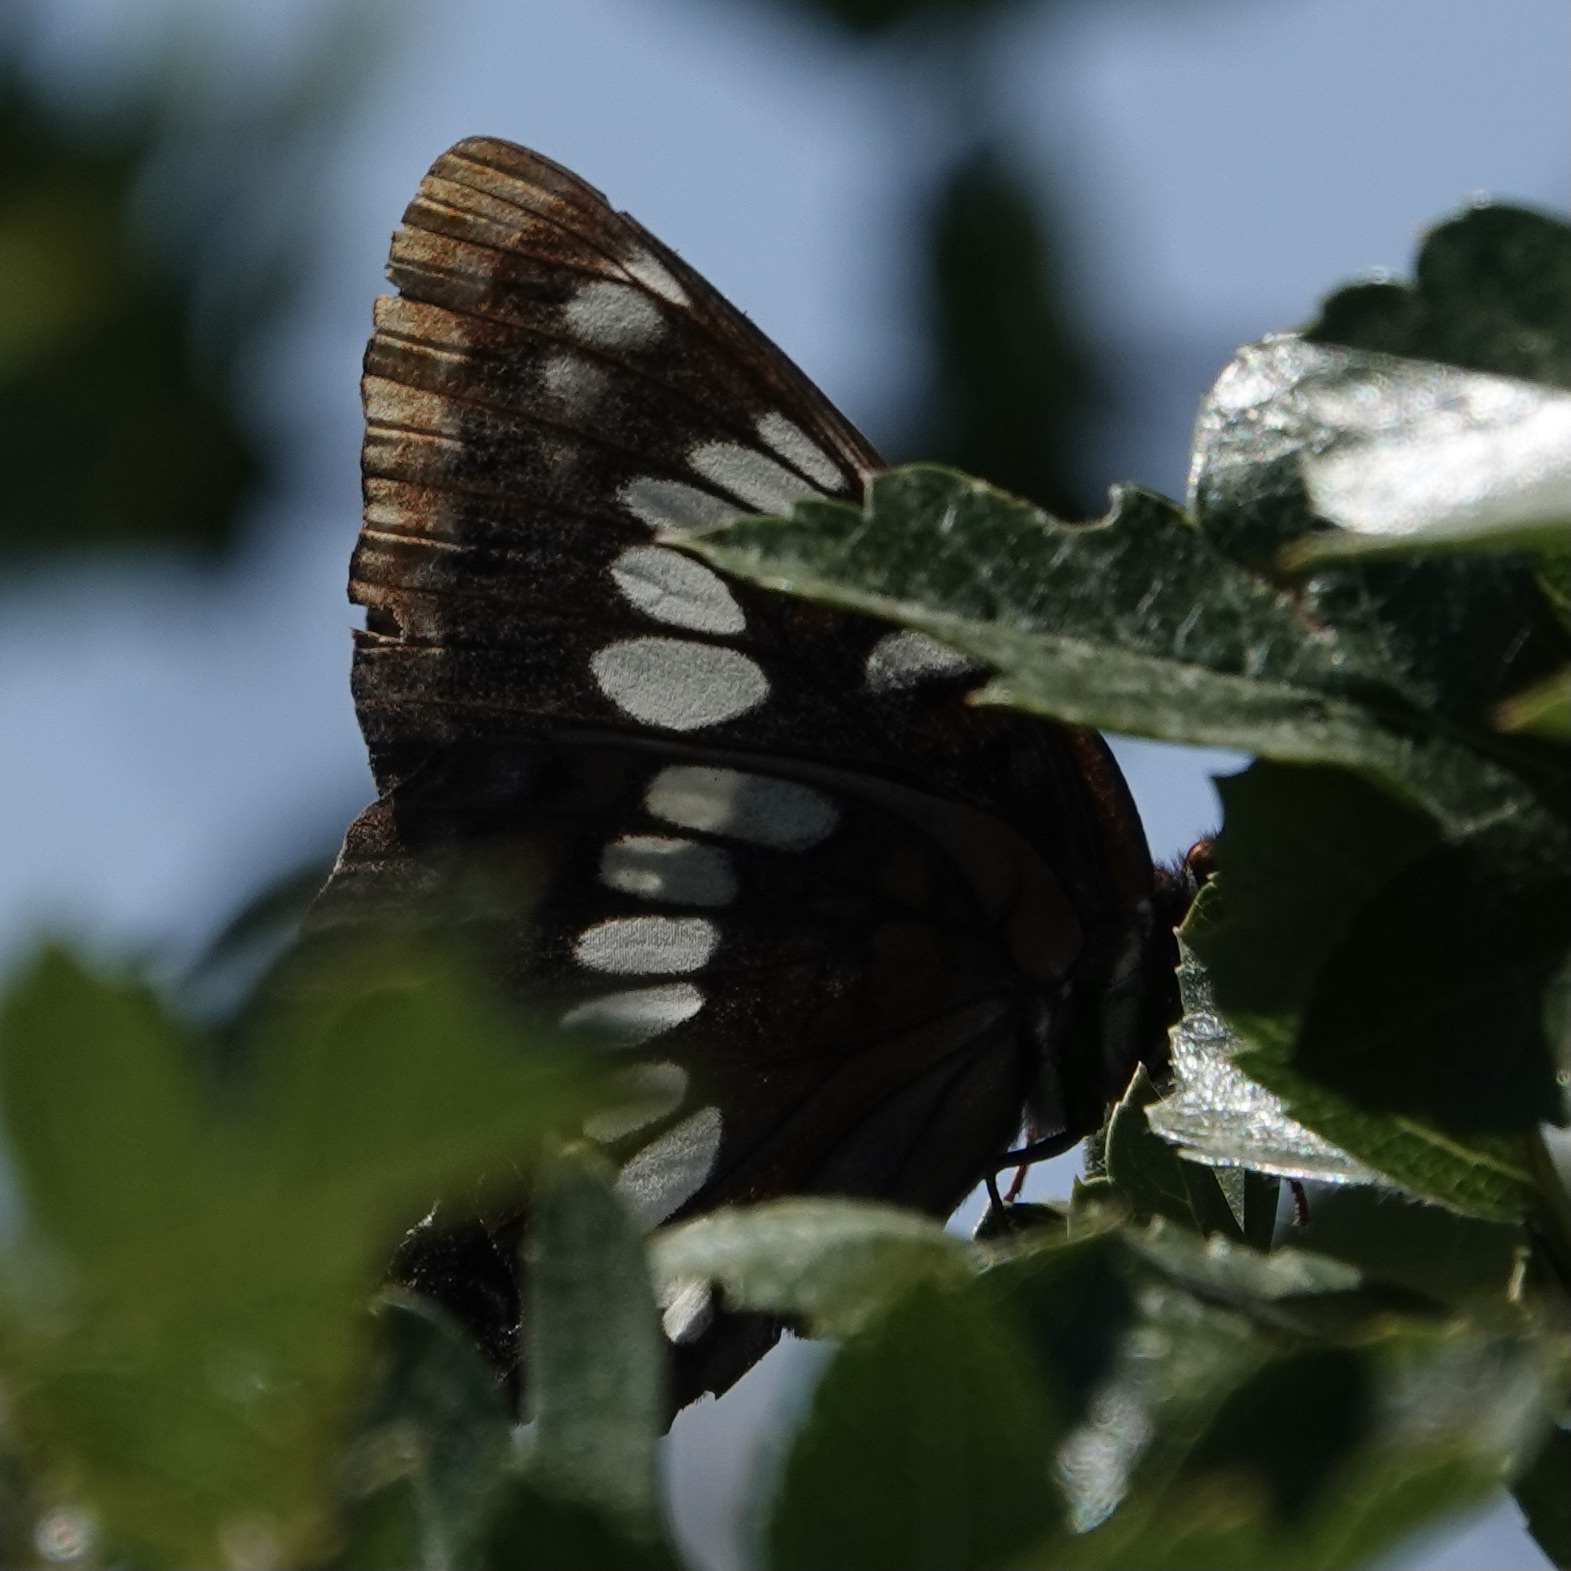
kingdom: Animalia
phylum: Arthropoda
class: Insecta
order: Lepidoptera
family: Nymphalidae
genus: Limenitis
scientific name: Limenitis lorquini
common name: Lorquin's admiral
